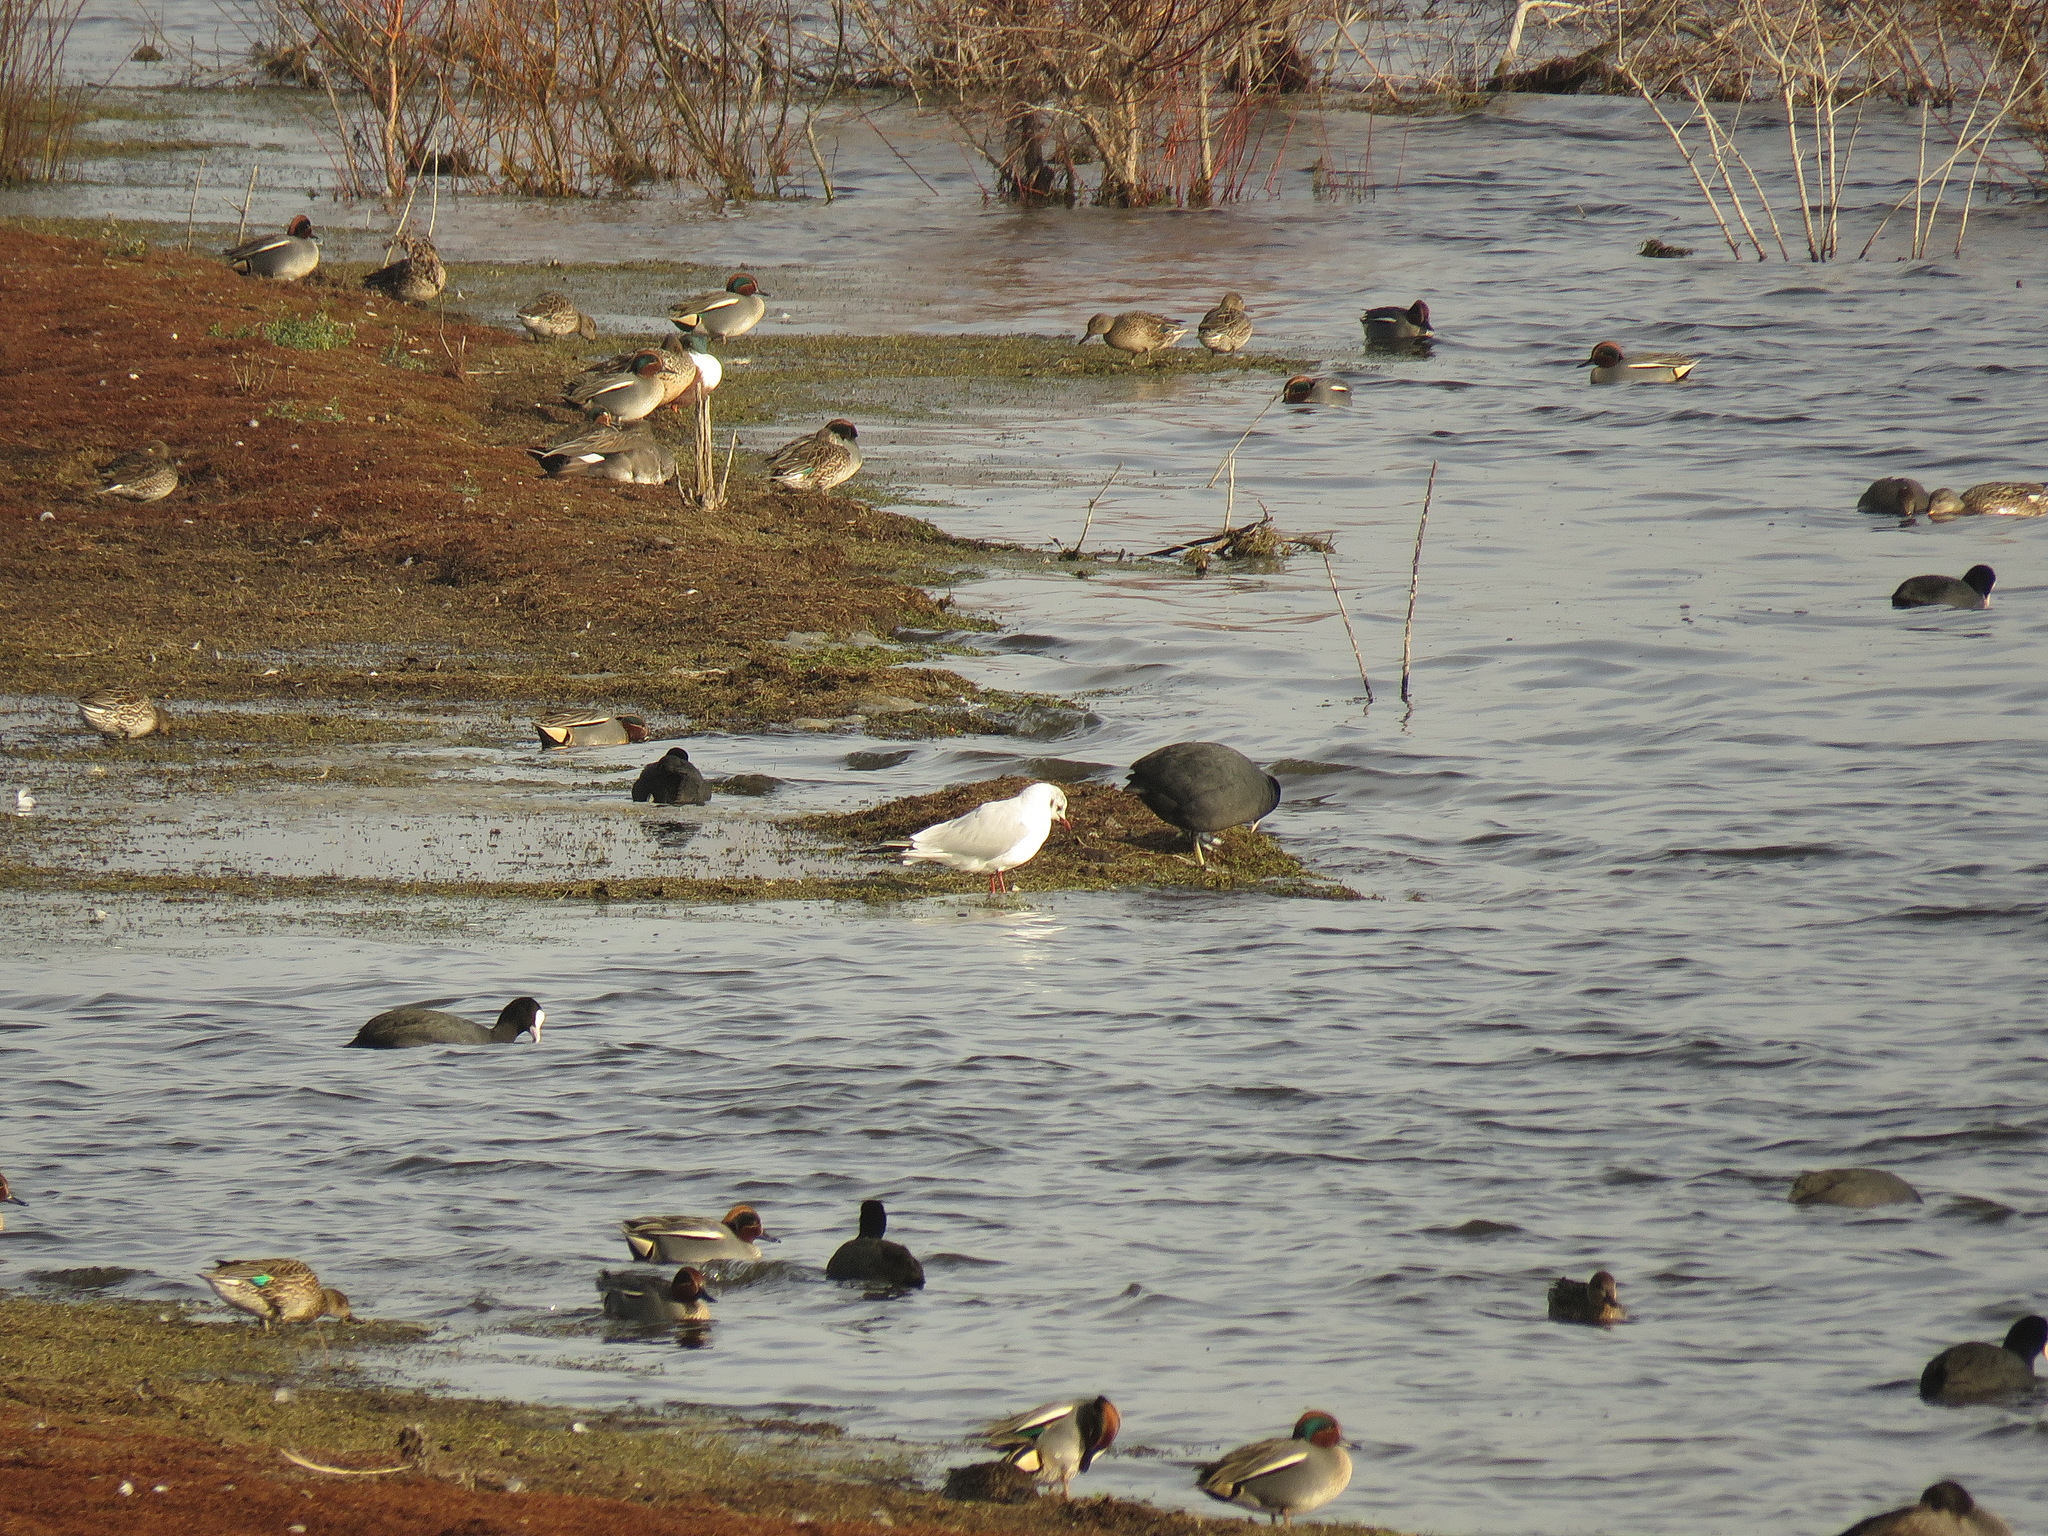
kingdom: Animalia
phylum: Chordata
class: Aves
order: Charadriiformes
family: Laridae
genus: Chroicocephalus
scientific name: Chroicocephalus ridibundus
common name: Black-headed gull
